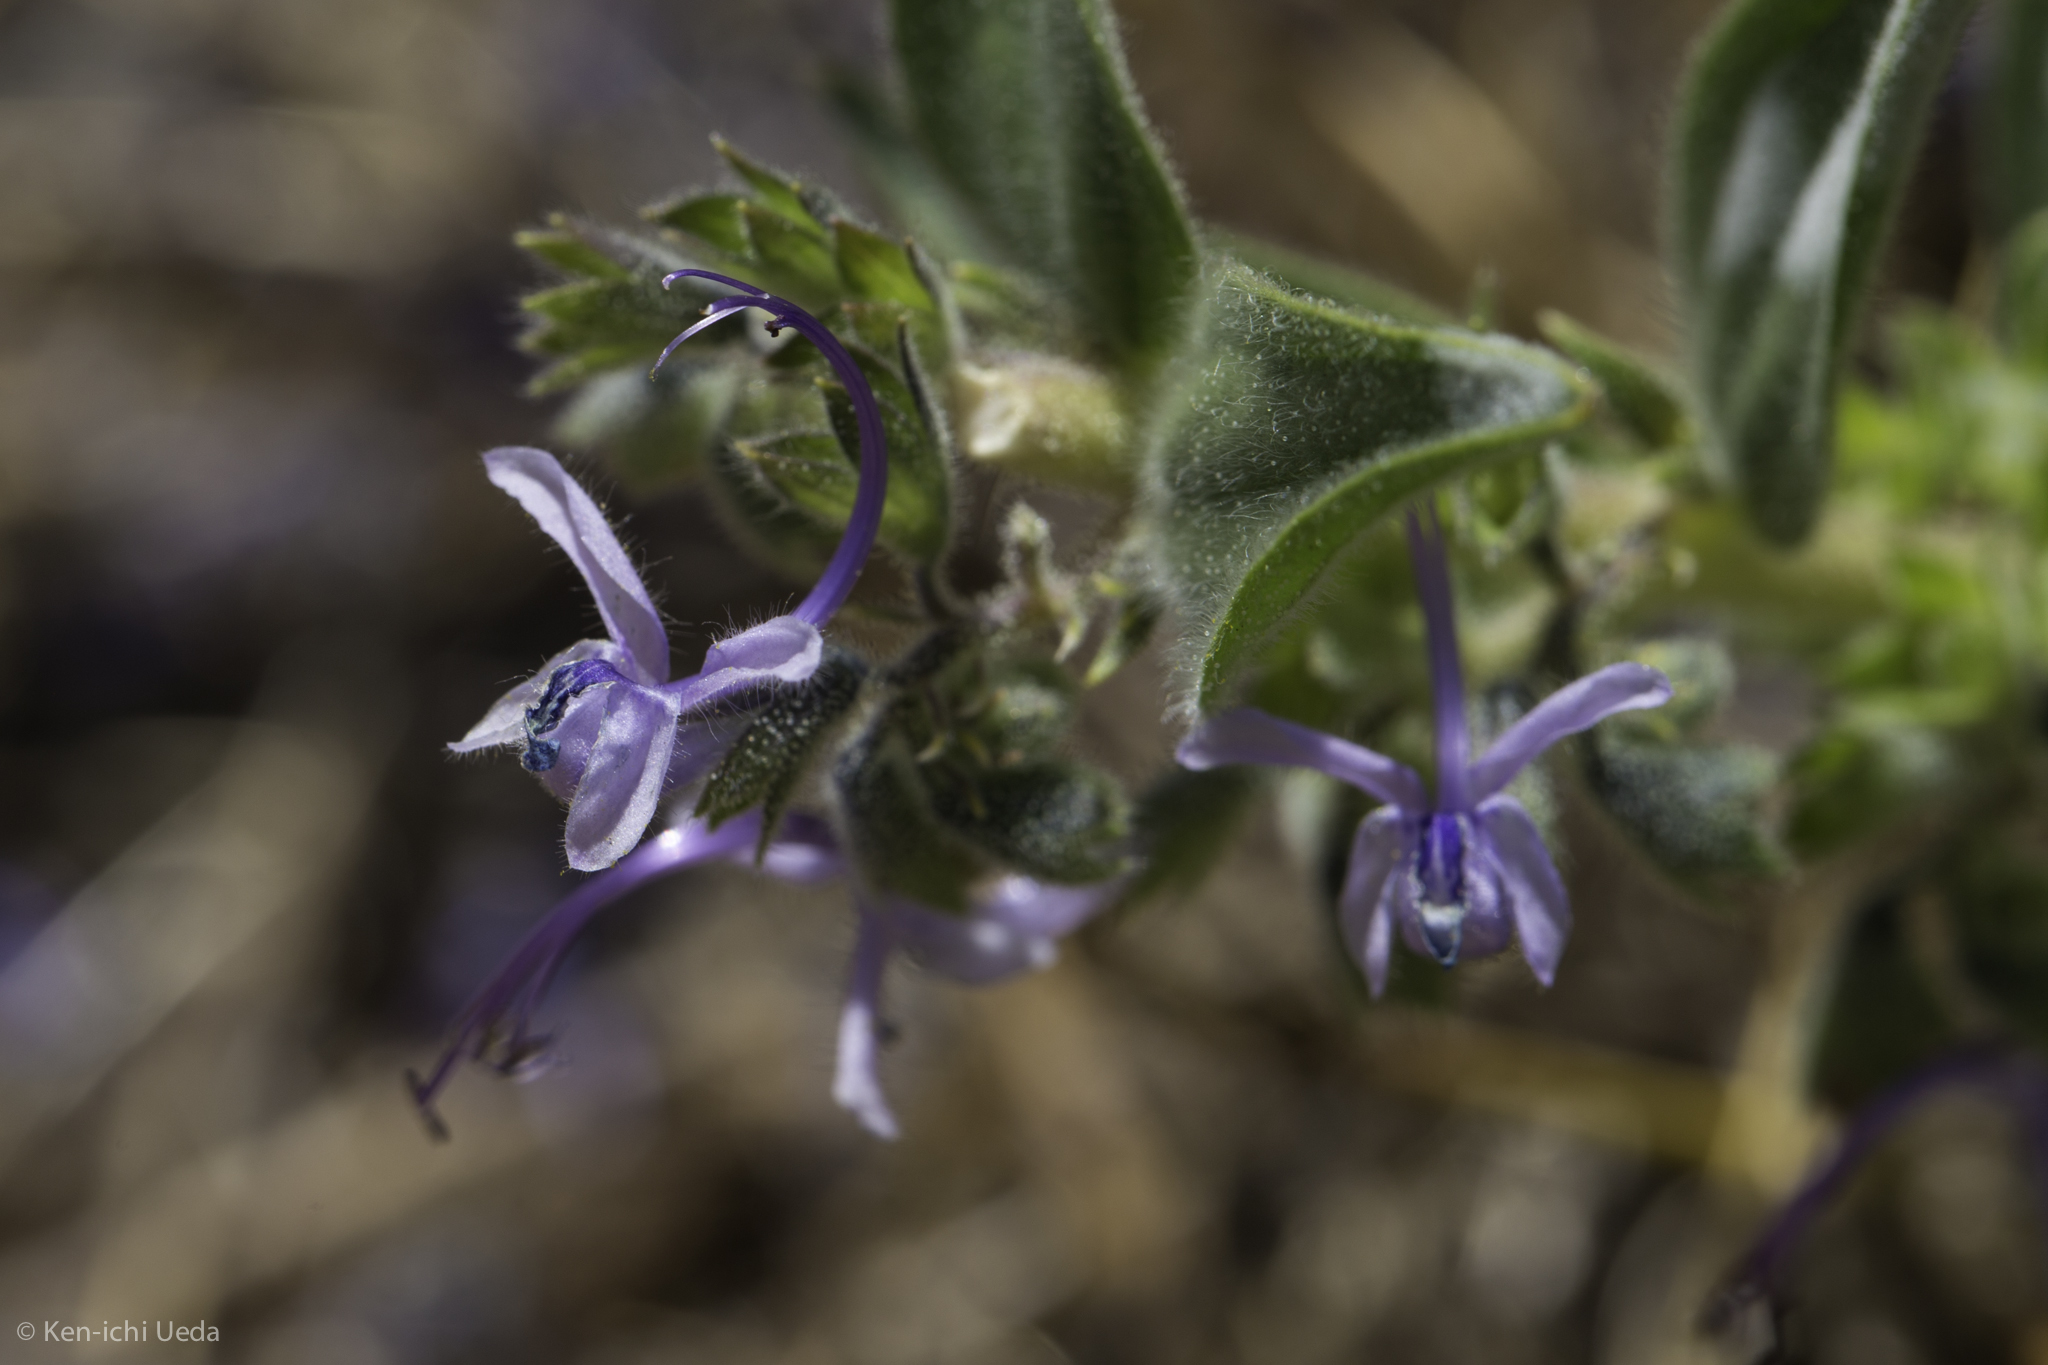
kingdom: Plantae
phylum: Tracheophyta
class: Magnoliopsida
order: Lamiales
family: Lamiaceae
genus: Trichostema
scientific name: Trichostema lanceolatum
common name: Vinegar-weed
